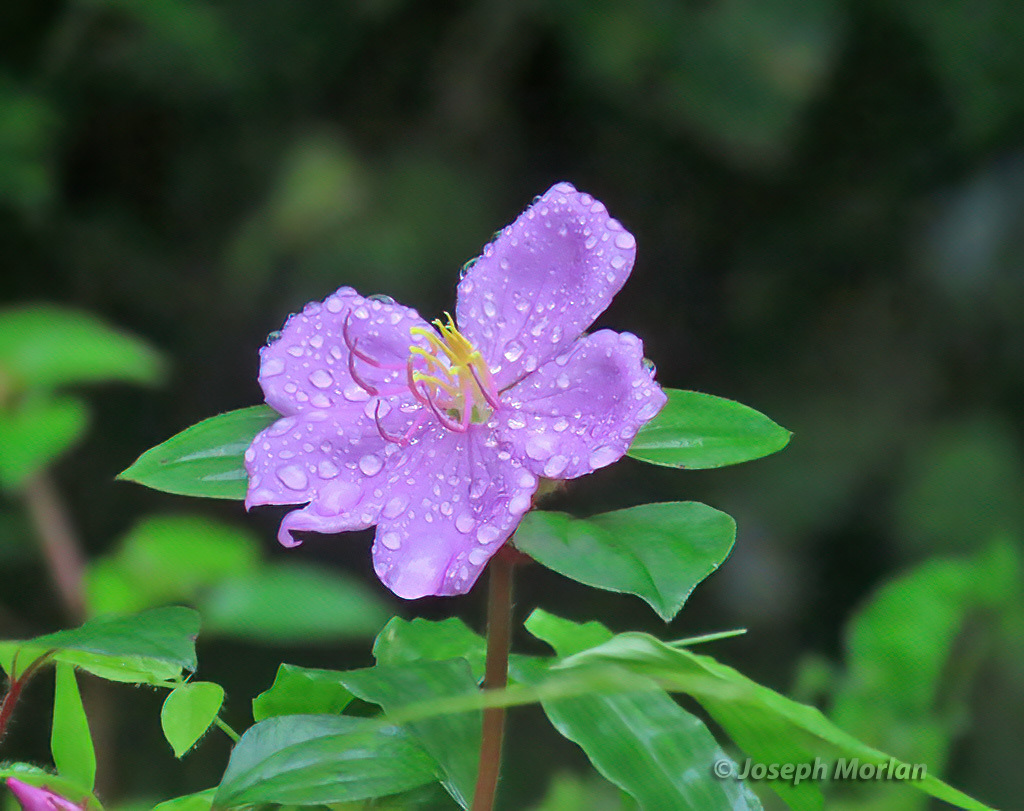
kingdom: Plantae
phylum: Tracheophyta
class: Magnoliopsida
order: Myrtales
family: Melastomataceae
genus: Heterotis
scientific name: Heterotis rotundifolia
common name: Pinklady
